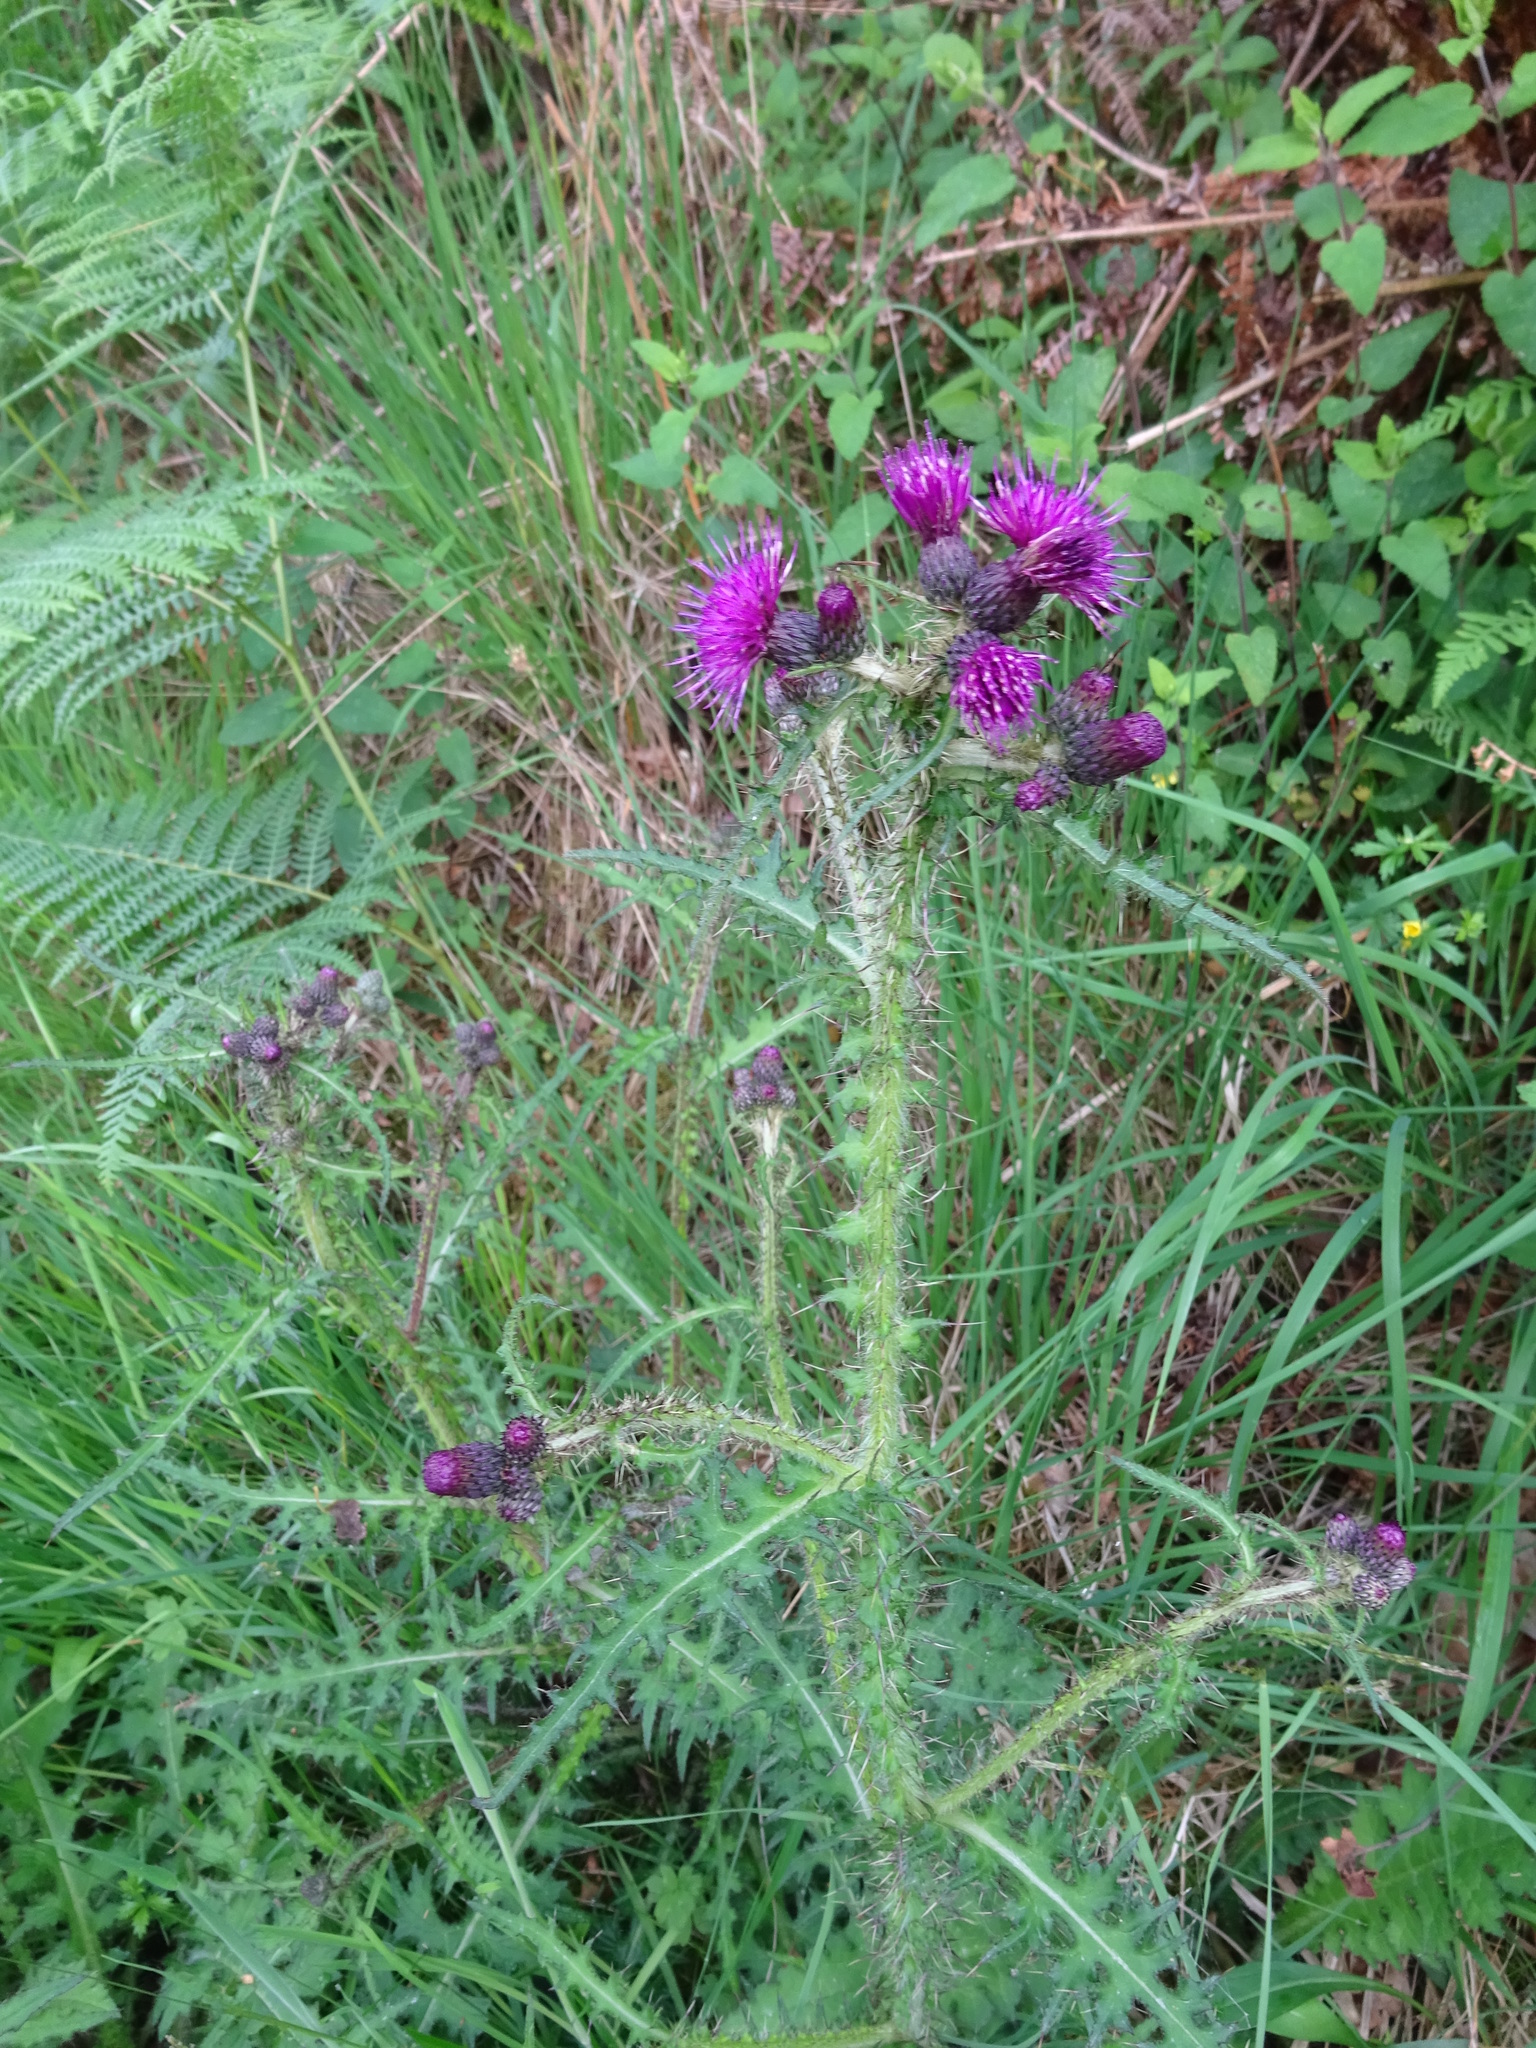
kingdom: Plantae
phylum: Tracheophyta
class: Magnoliopsida
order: Asterales
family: Asteraceae
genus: Cirsium
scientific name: Cirsium palustre
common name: Marsh thistle
